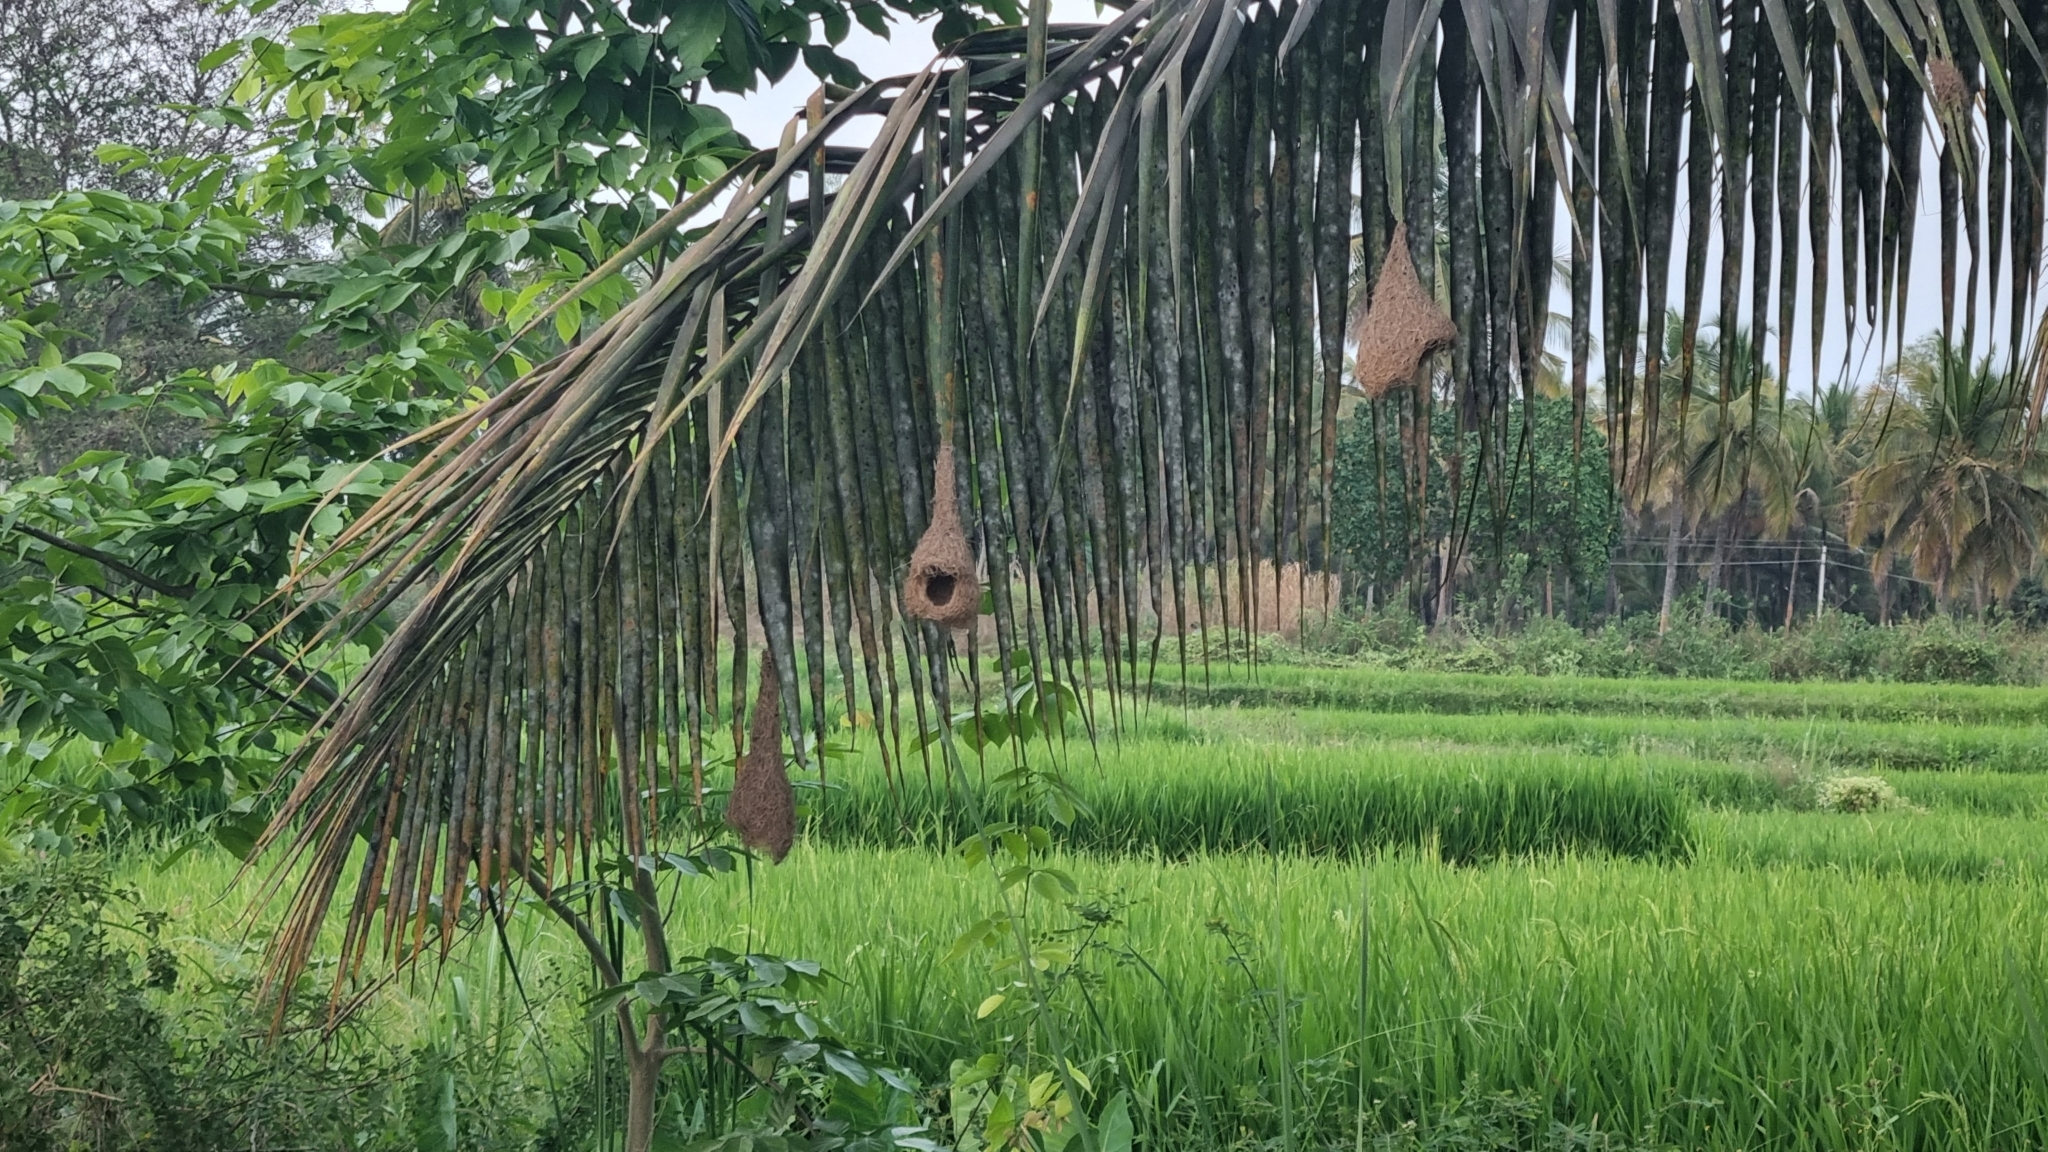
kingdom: Animalia
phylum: Chordata
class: Aves
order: Passeriformes
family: Ploceidae
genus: Ploceus
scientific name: Ploceus philippinus
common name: Baya weaver
